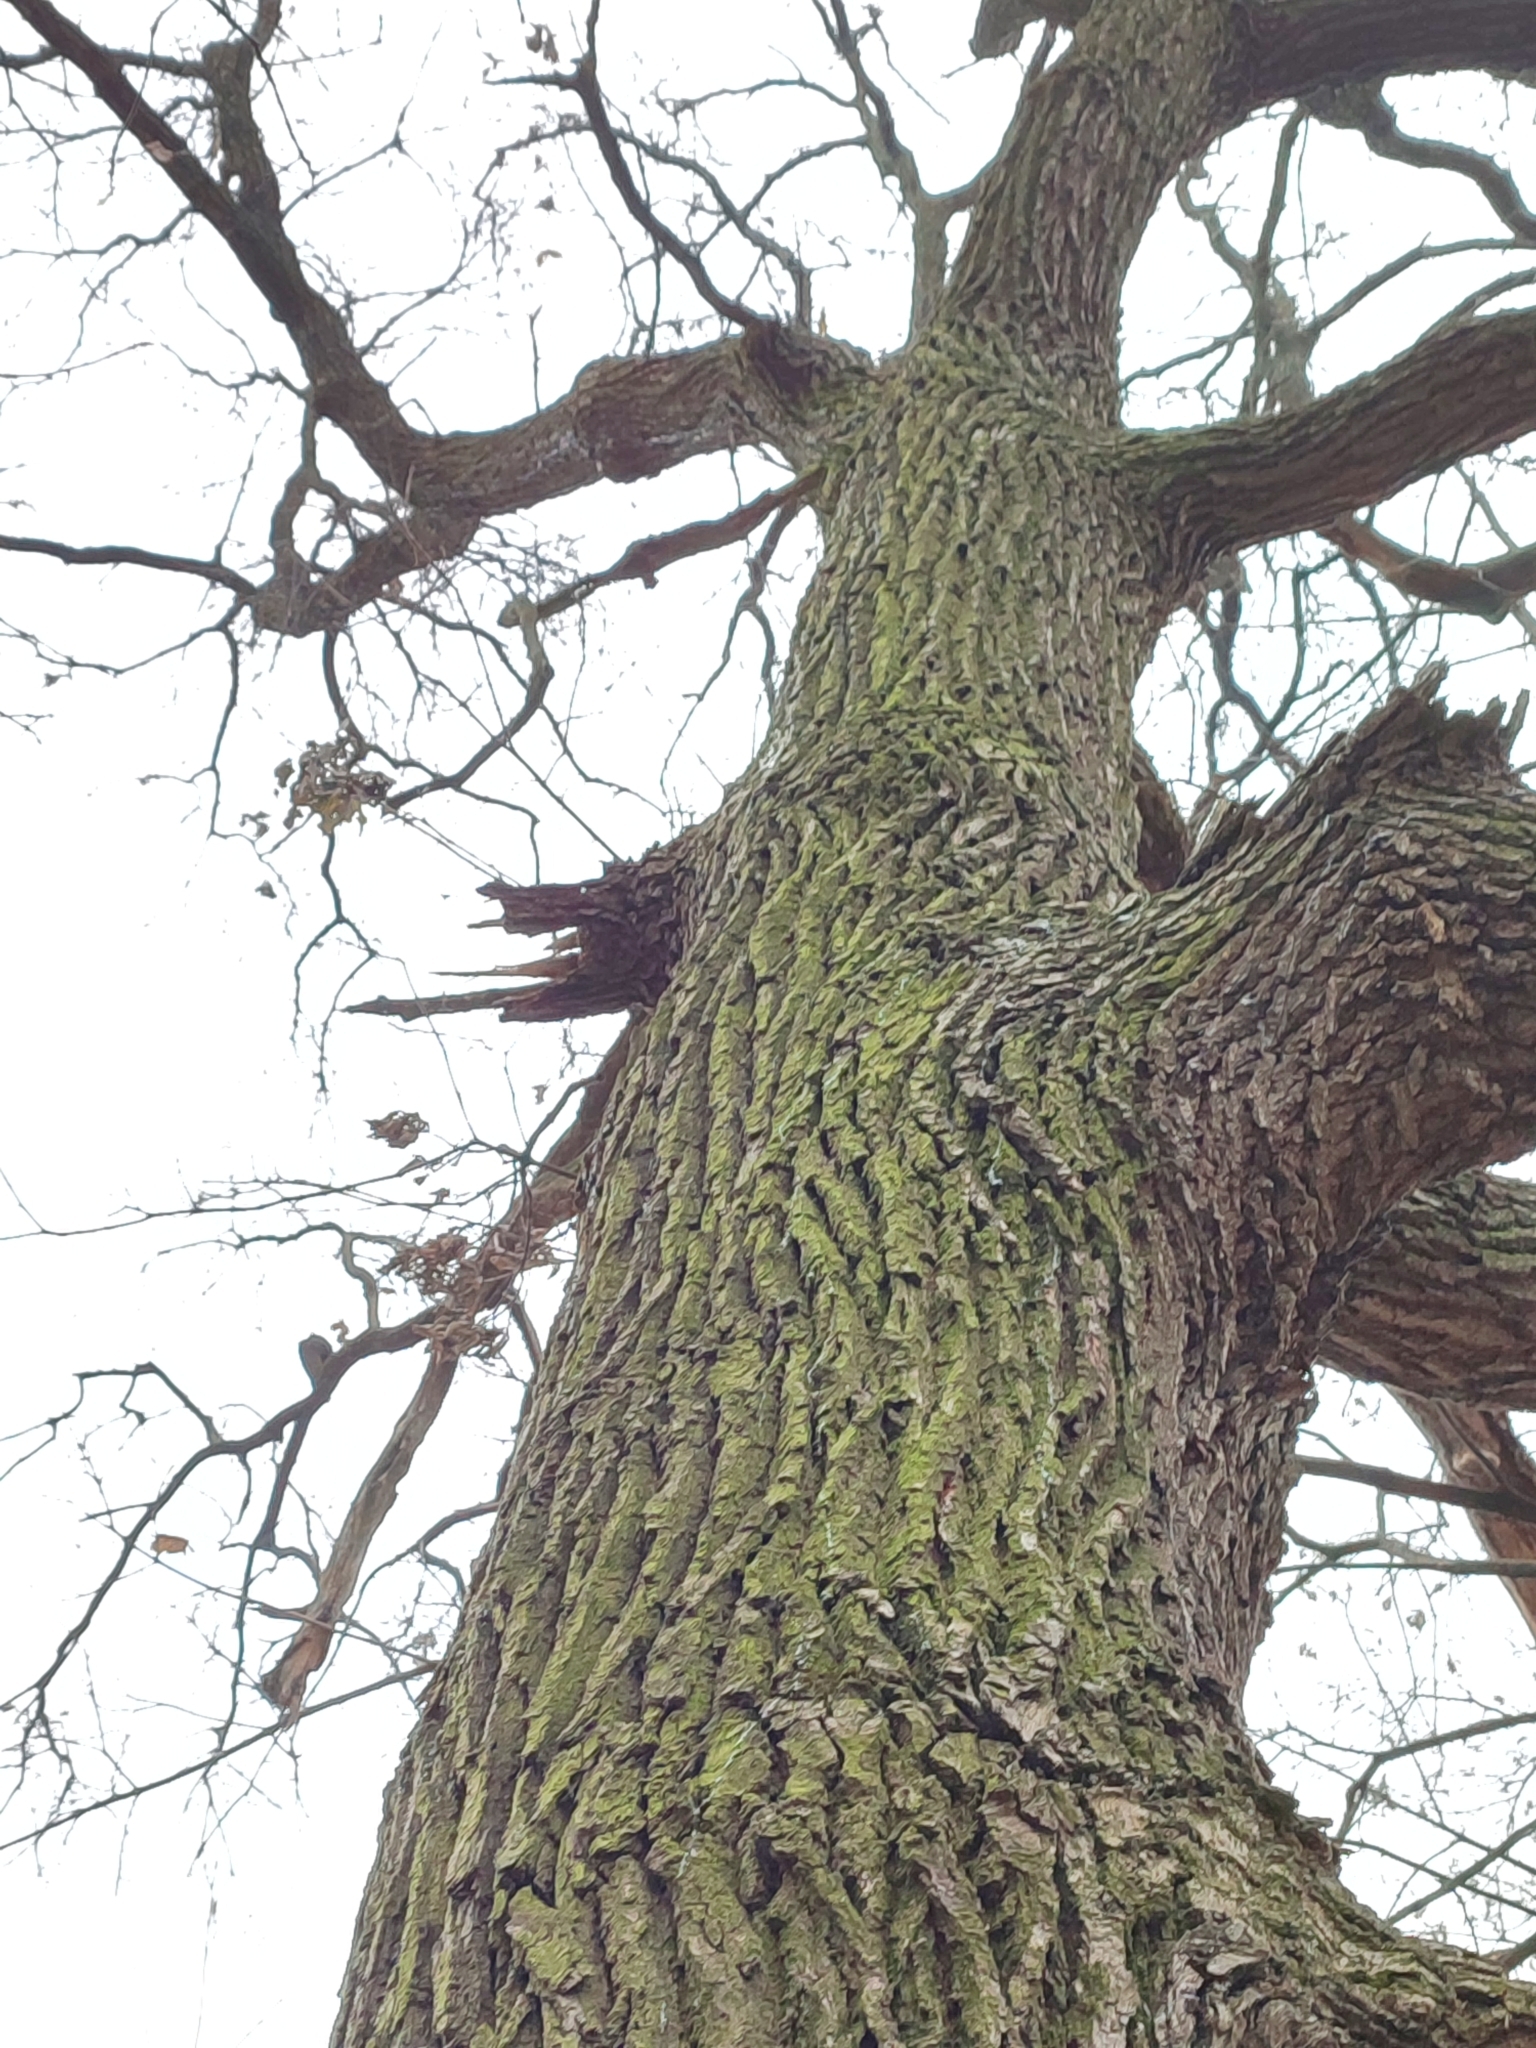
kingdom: Plantae
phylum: Tracheophyta
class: Magnoliopsida
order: Fagales
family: Fagaceae
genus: Quercus
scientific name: Quercus robur
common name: Pedunculate oak
